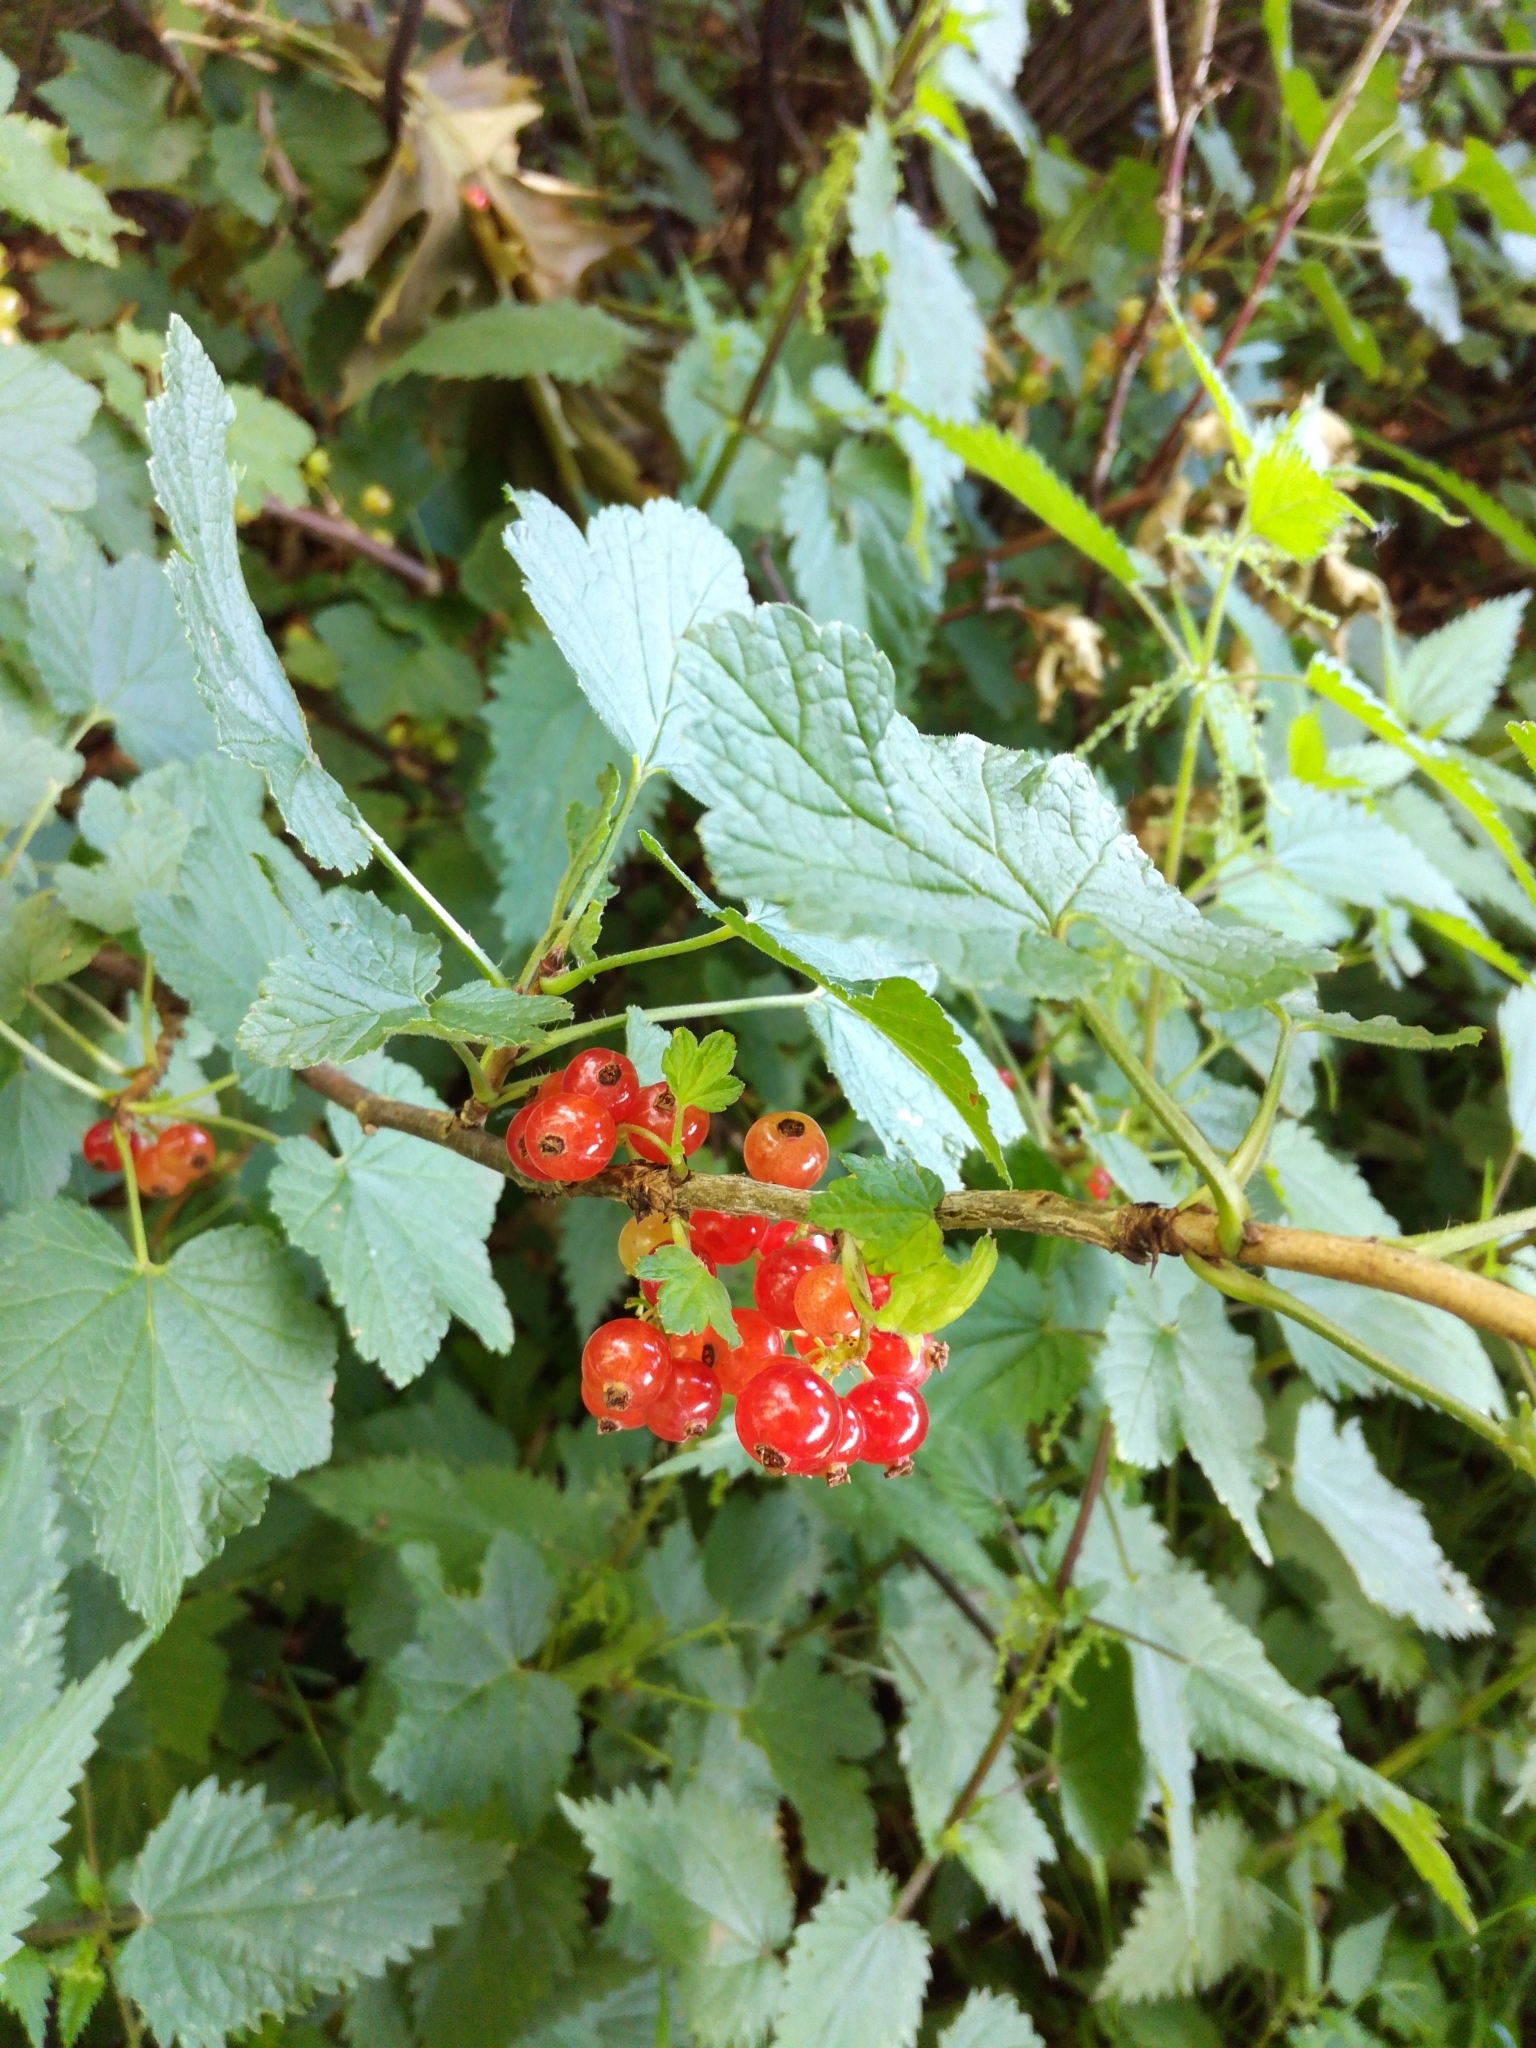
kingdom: Plantae
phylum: Tracheophyta
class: Magnoliopsida
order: Saxifragales
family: Grossulariaceae
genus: Ribes
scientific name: Ribes rubrum
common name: Red currant
